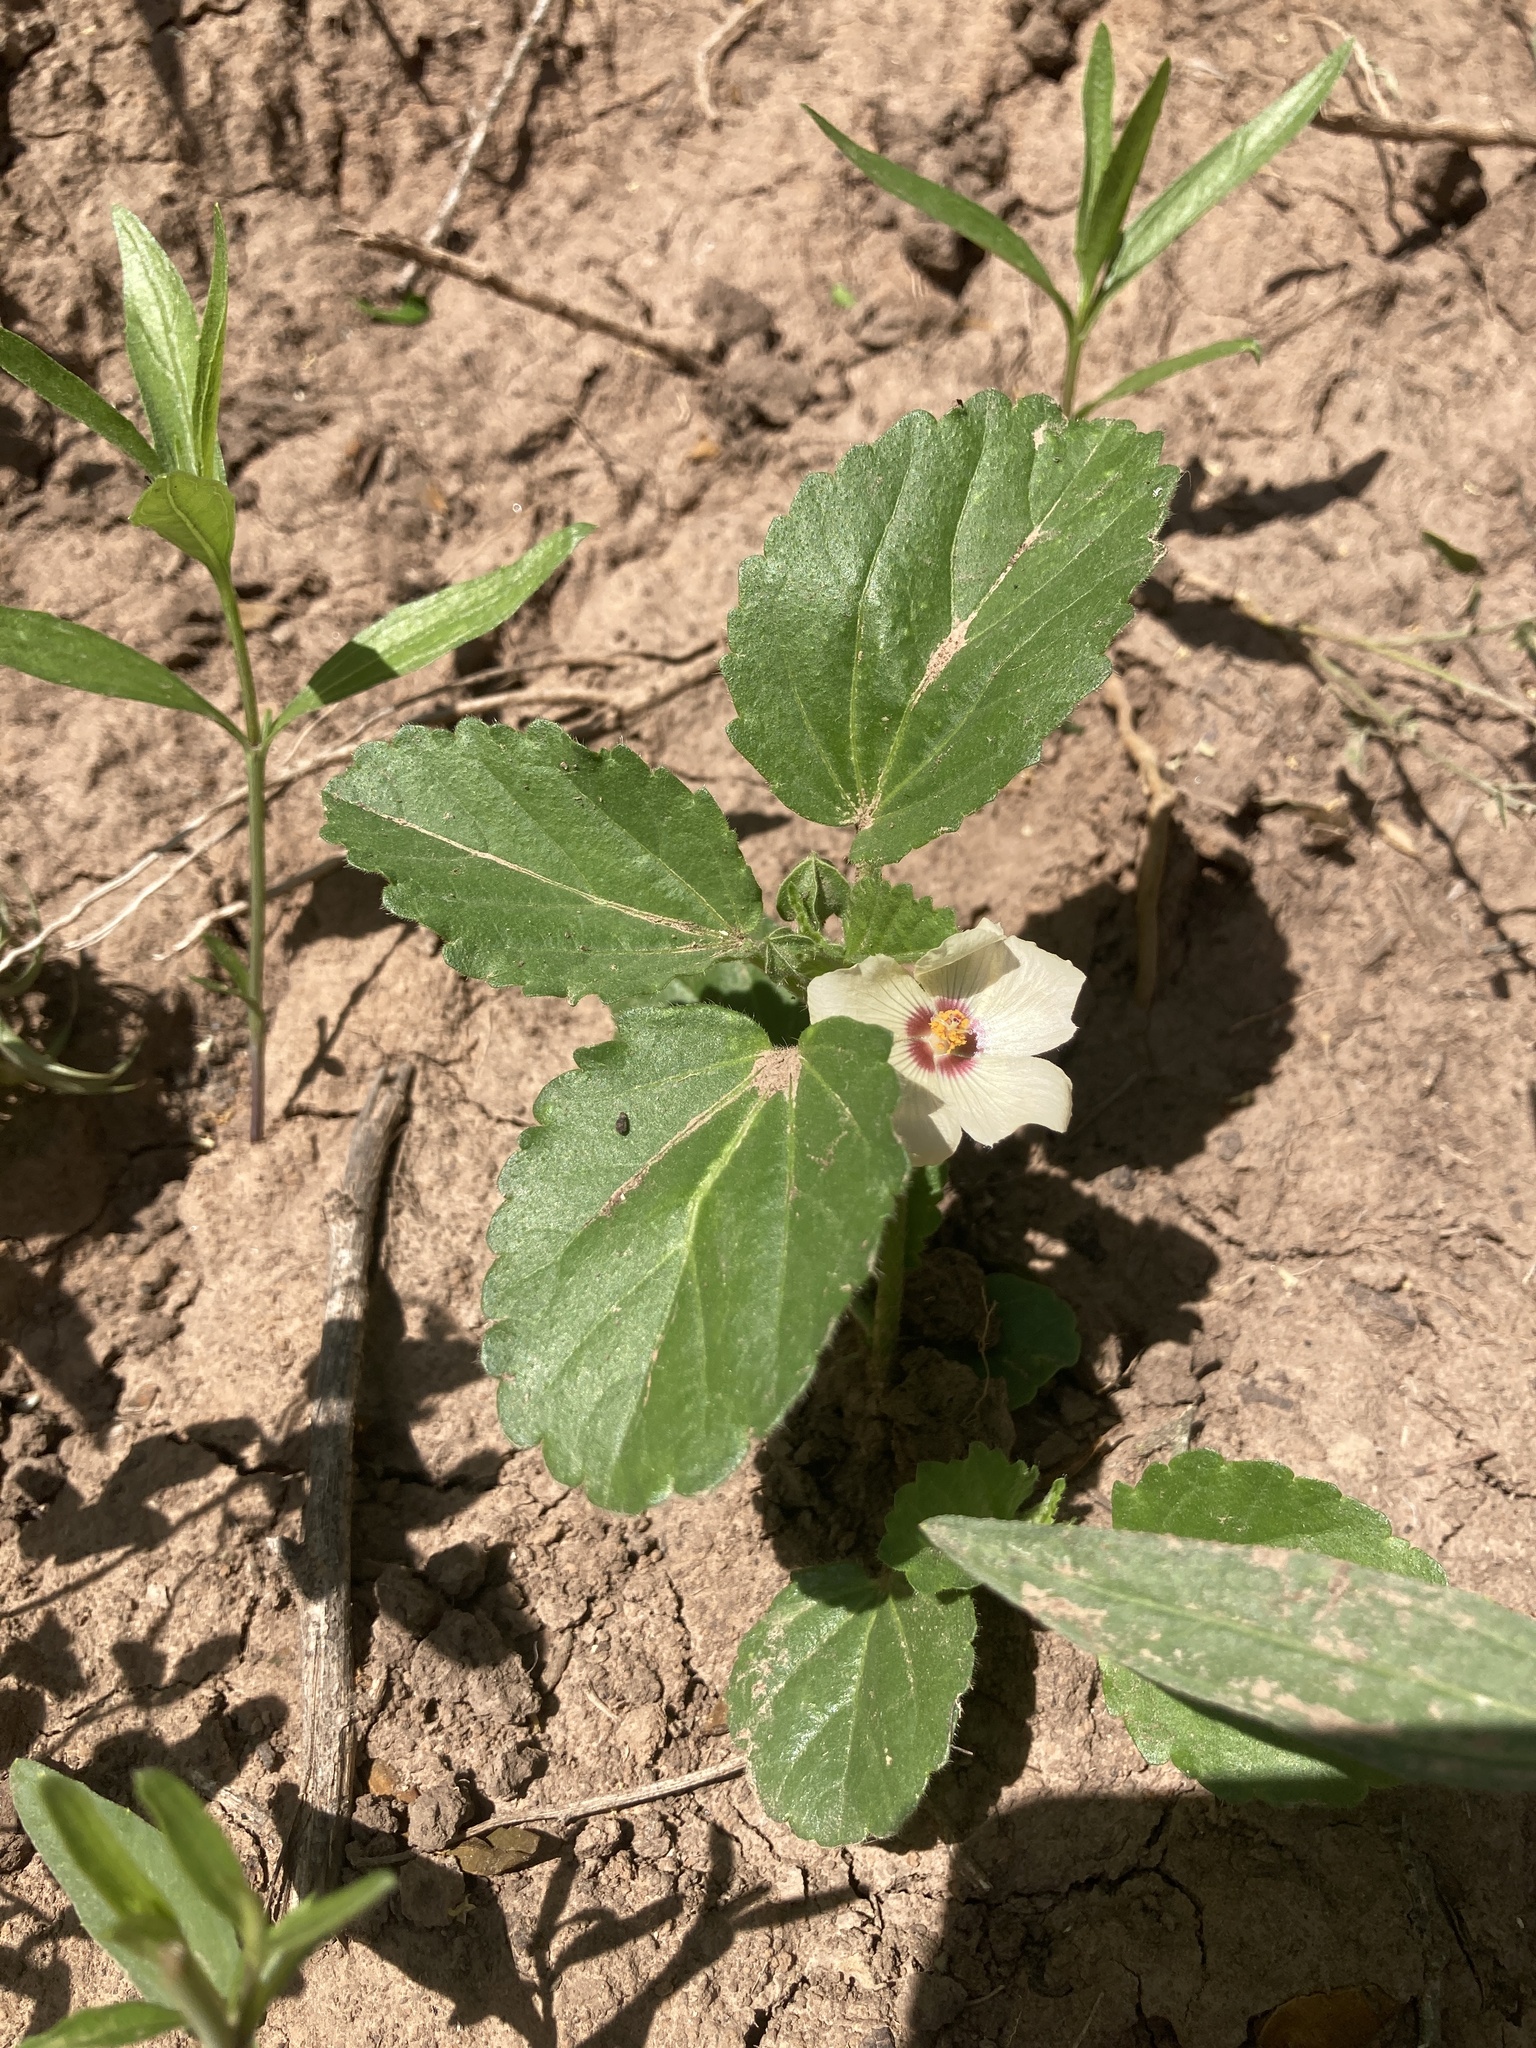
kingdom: Plantae
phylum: Tracheophyta
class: Magnoliopsida
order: Malvales
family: Malvaceae
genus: Rhynchosida
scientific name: Rhynchosida physocalyx
